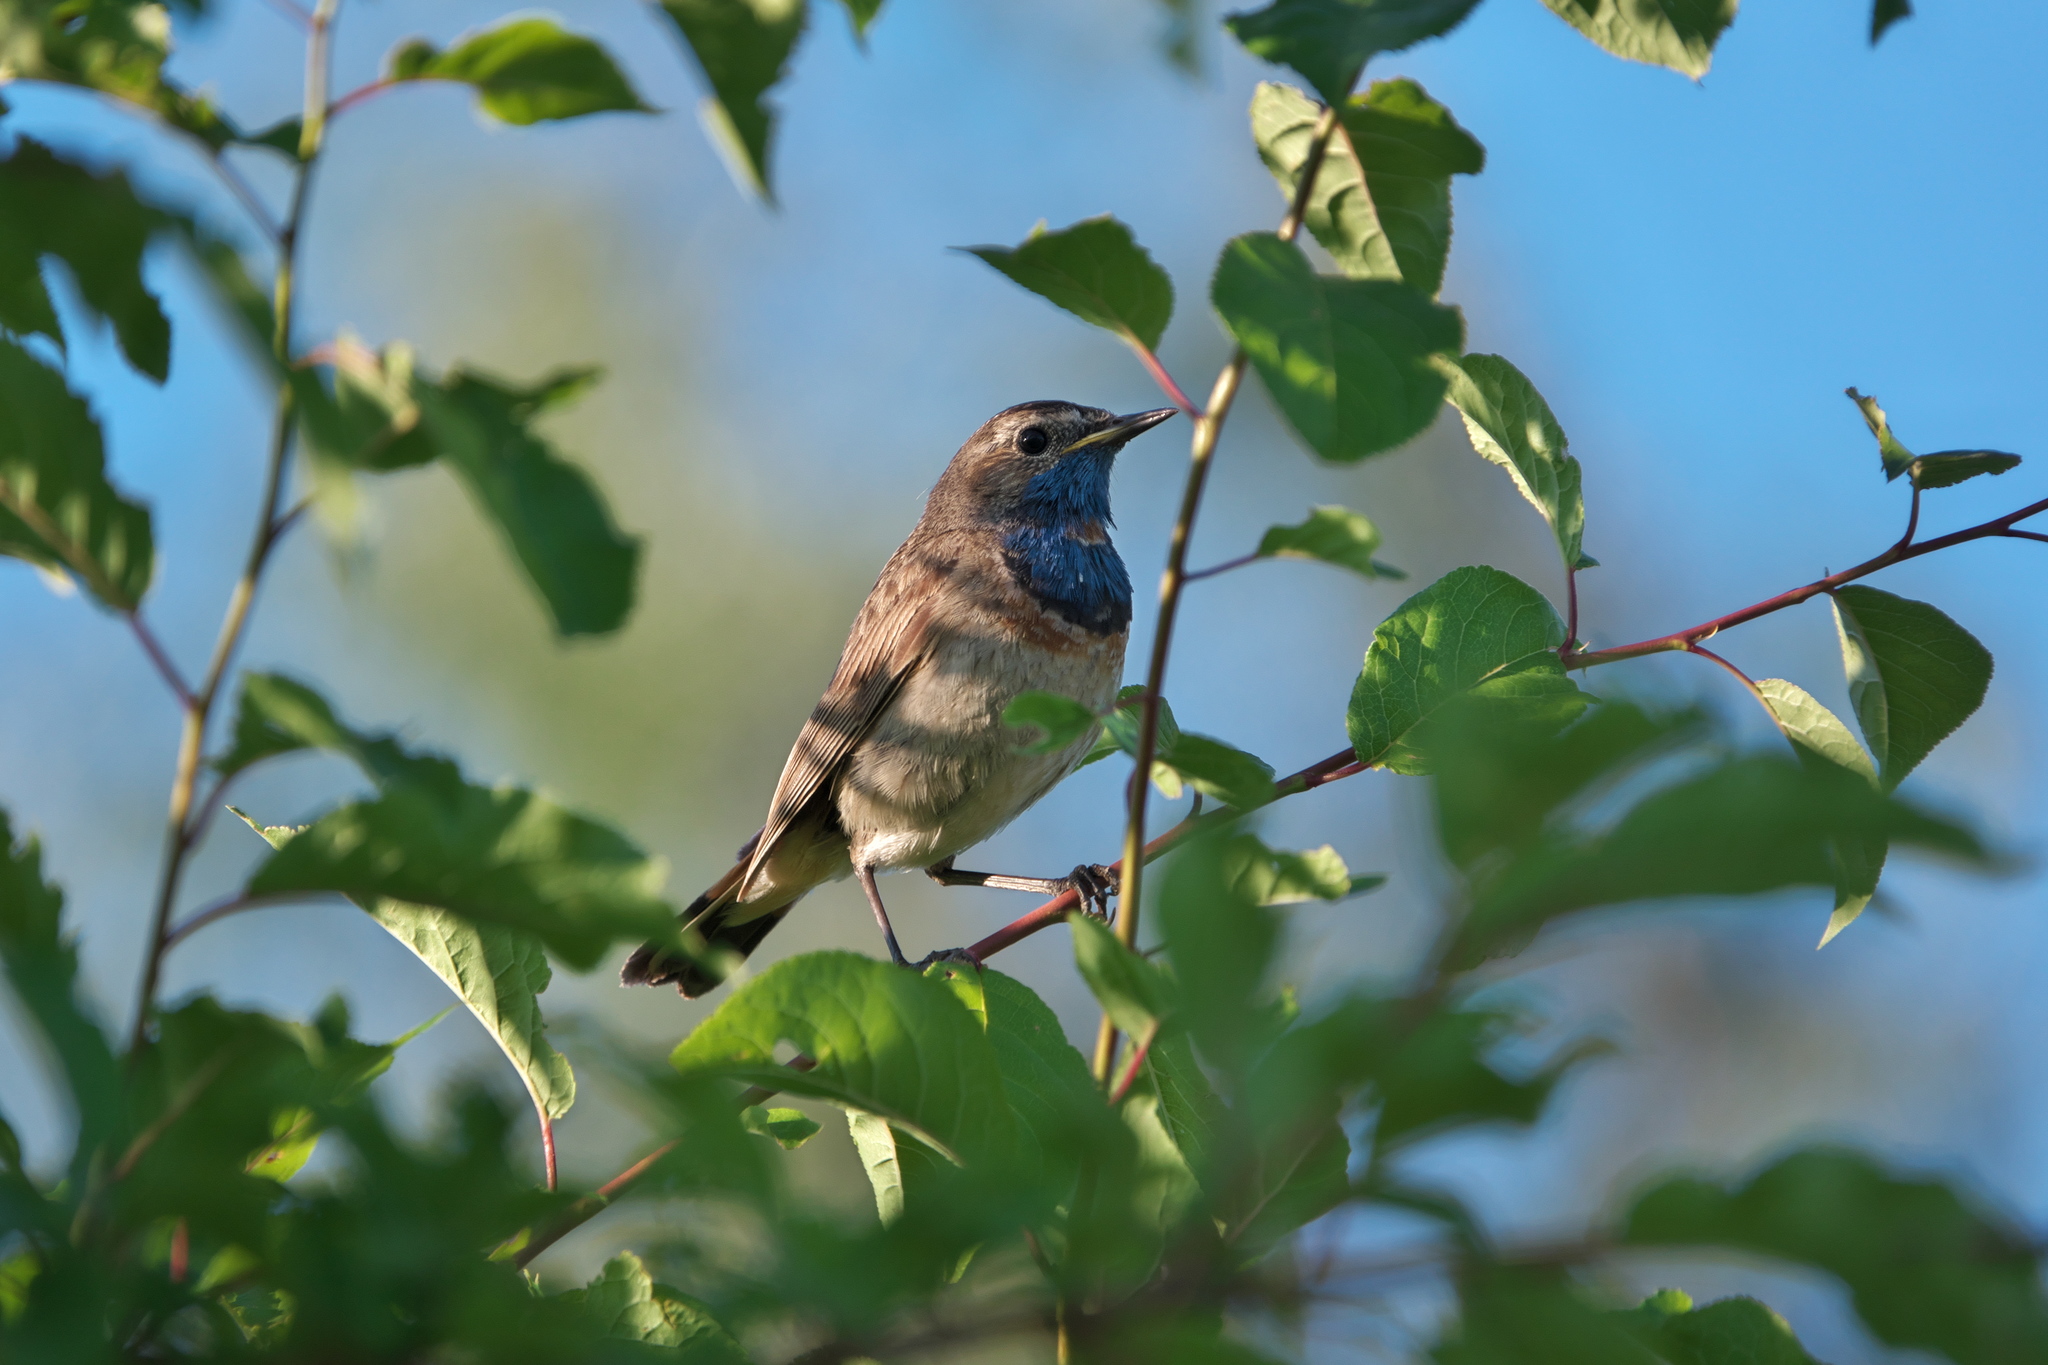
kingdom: Animalia
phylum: Chordata
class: Aves
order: Passeriformes
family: Muscicapidae
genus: Luscinia
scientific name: Luscinia svecica
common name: Bluethroat
